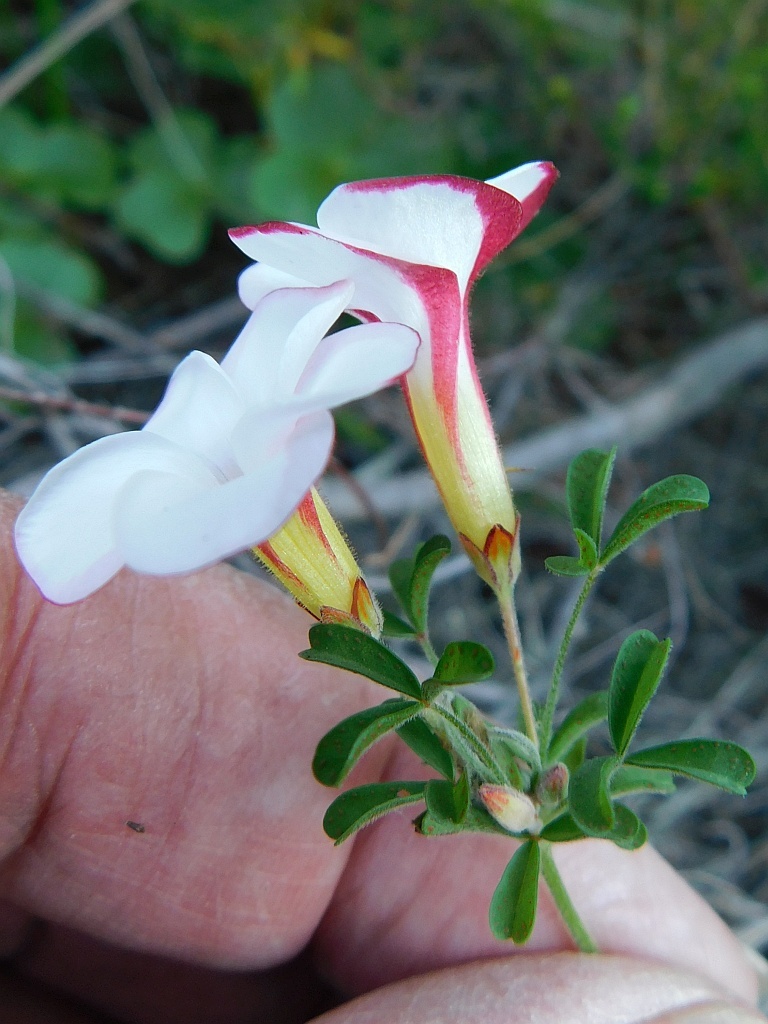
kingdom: Plantae
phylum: Tracheophyta
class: Magnoliopsida
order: Oxalidales
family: Oxalidaceae
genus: Oxalis
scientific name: Oxalis multicaulis
